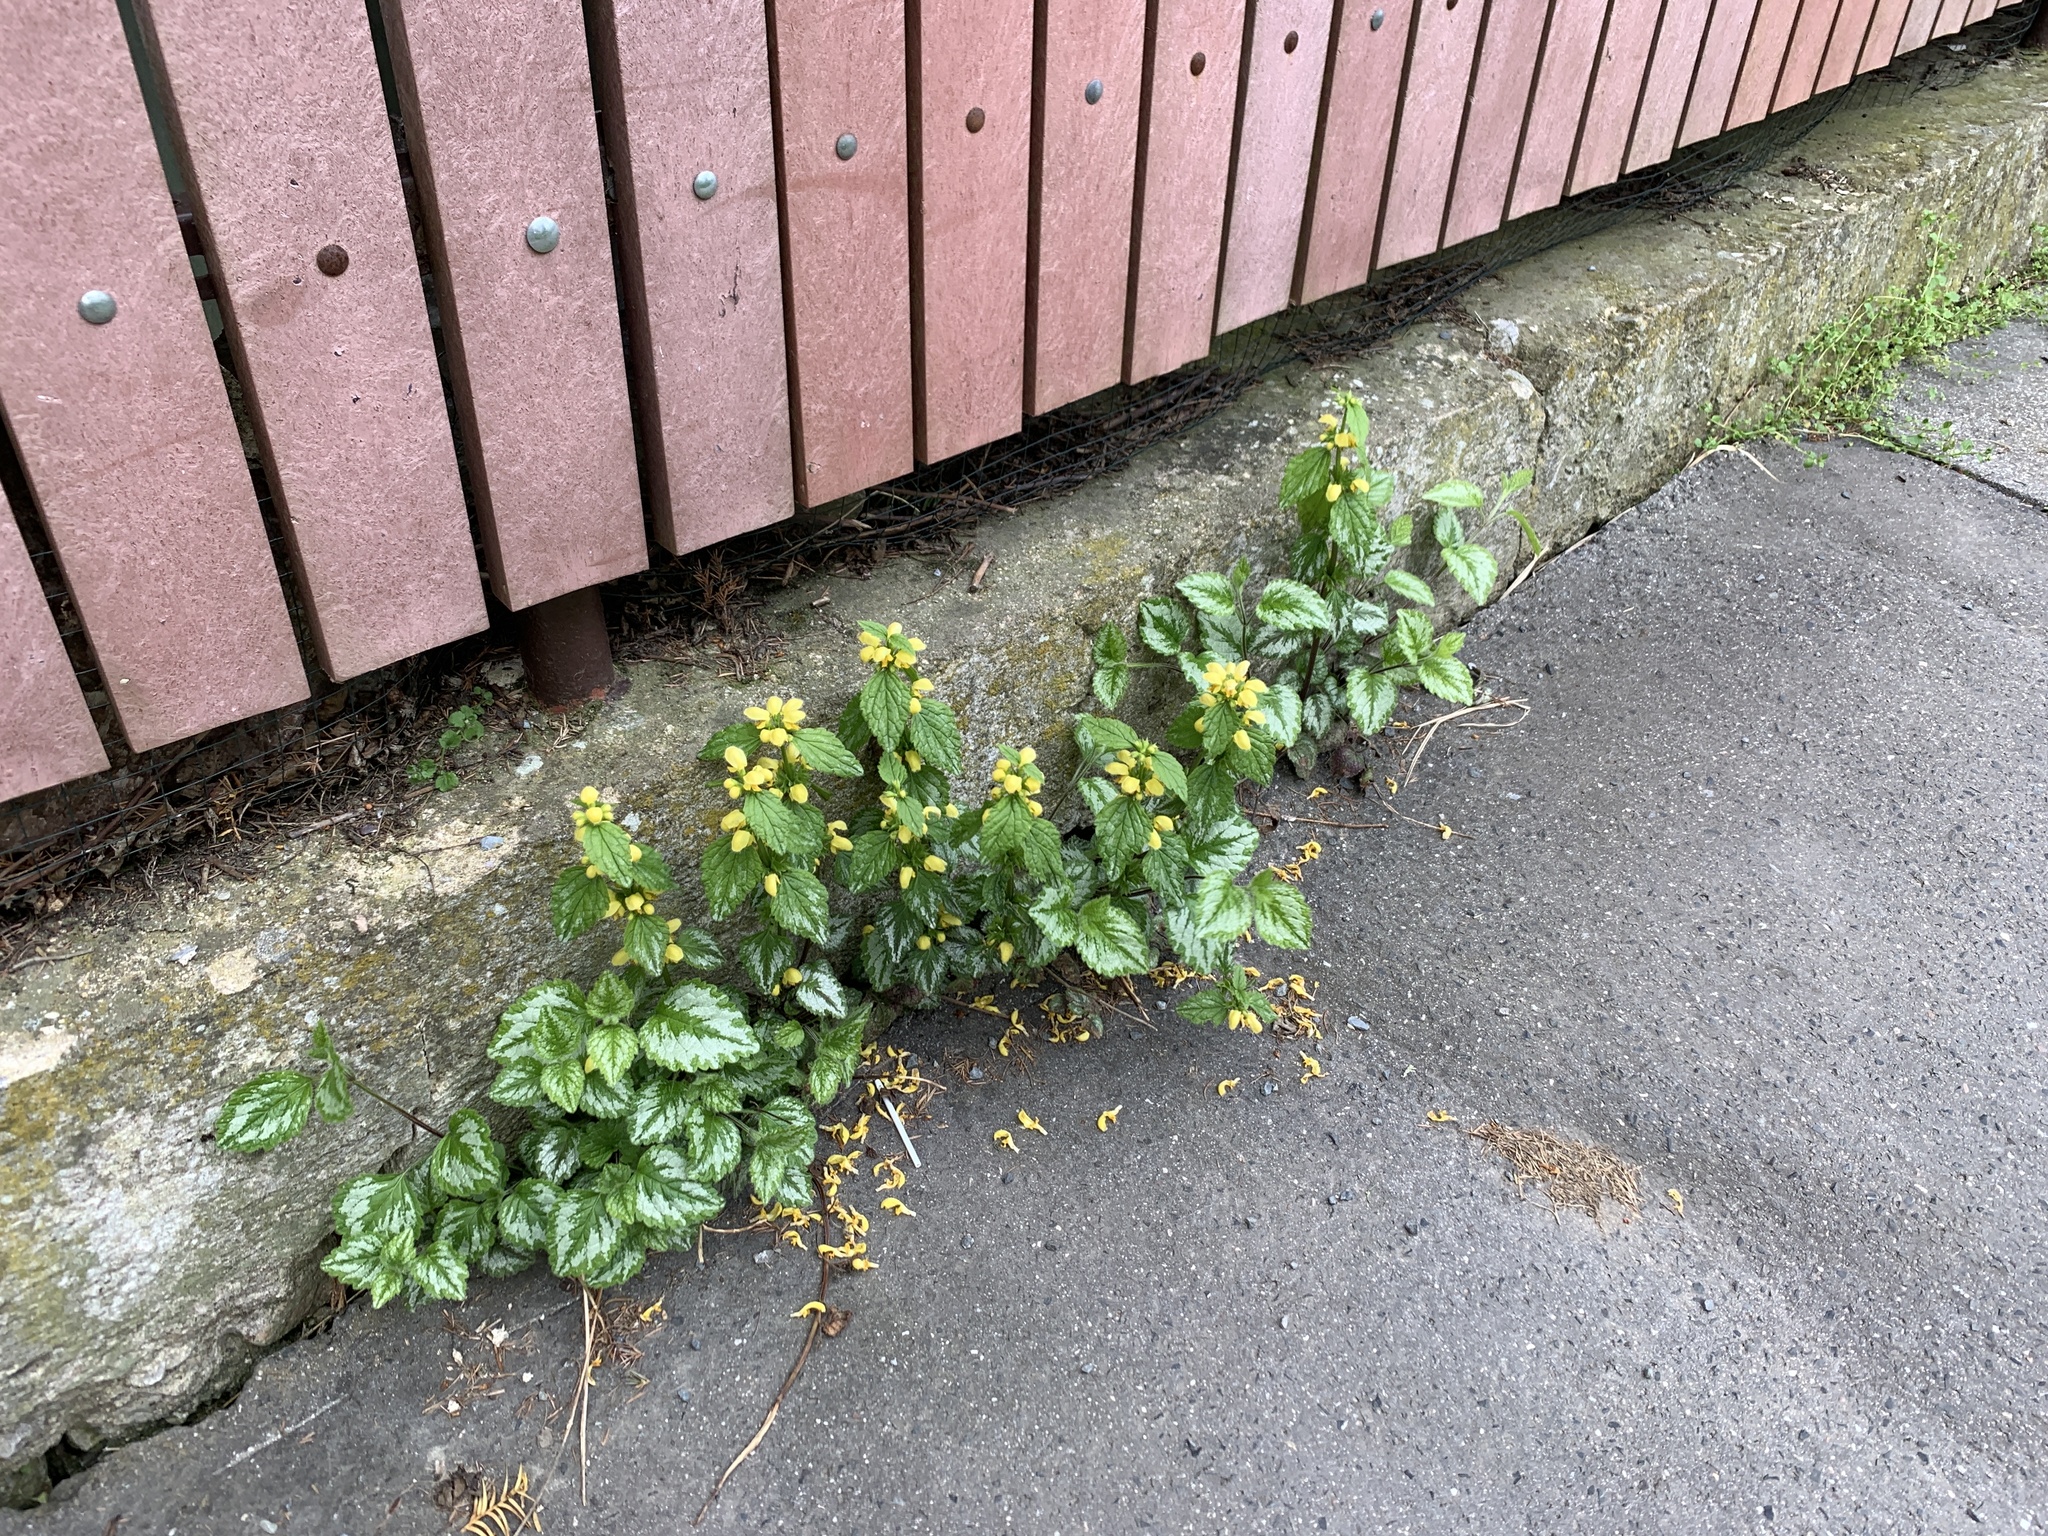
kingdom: Plantae
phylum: Tracheophyta
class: Magnoliopsida
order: Lamiales
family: Lamiaceae
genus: Lamium
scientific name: Lamium galeobdolon
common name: Yellow archangel
